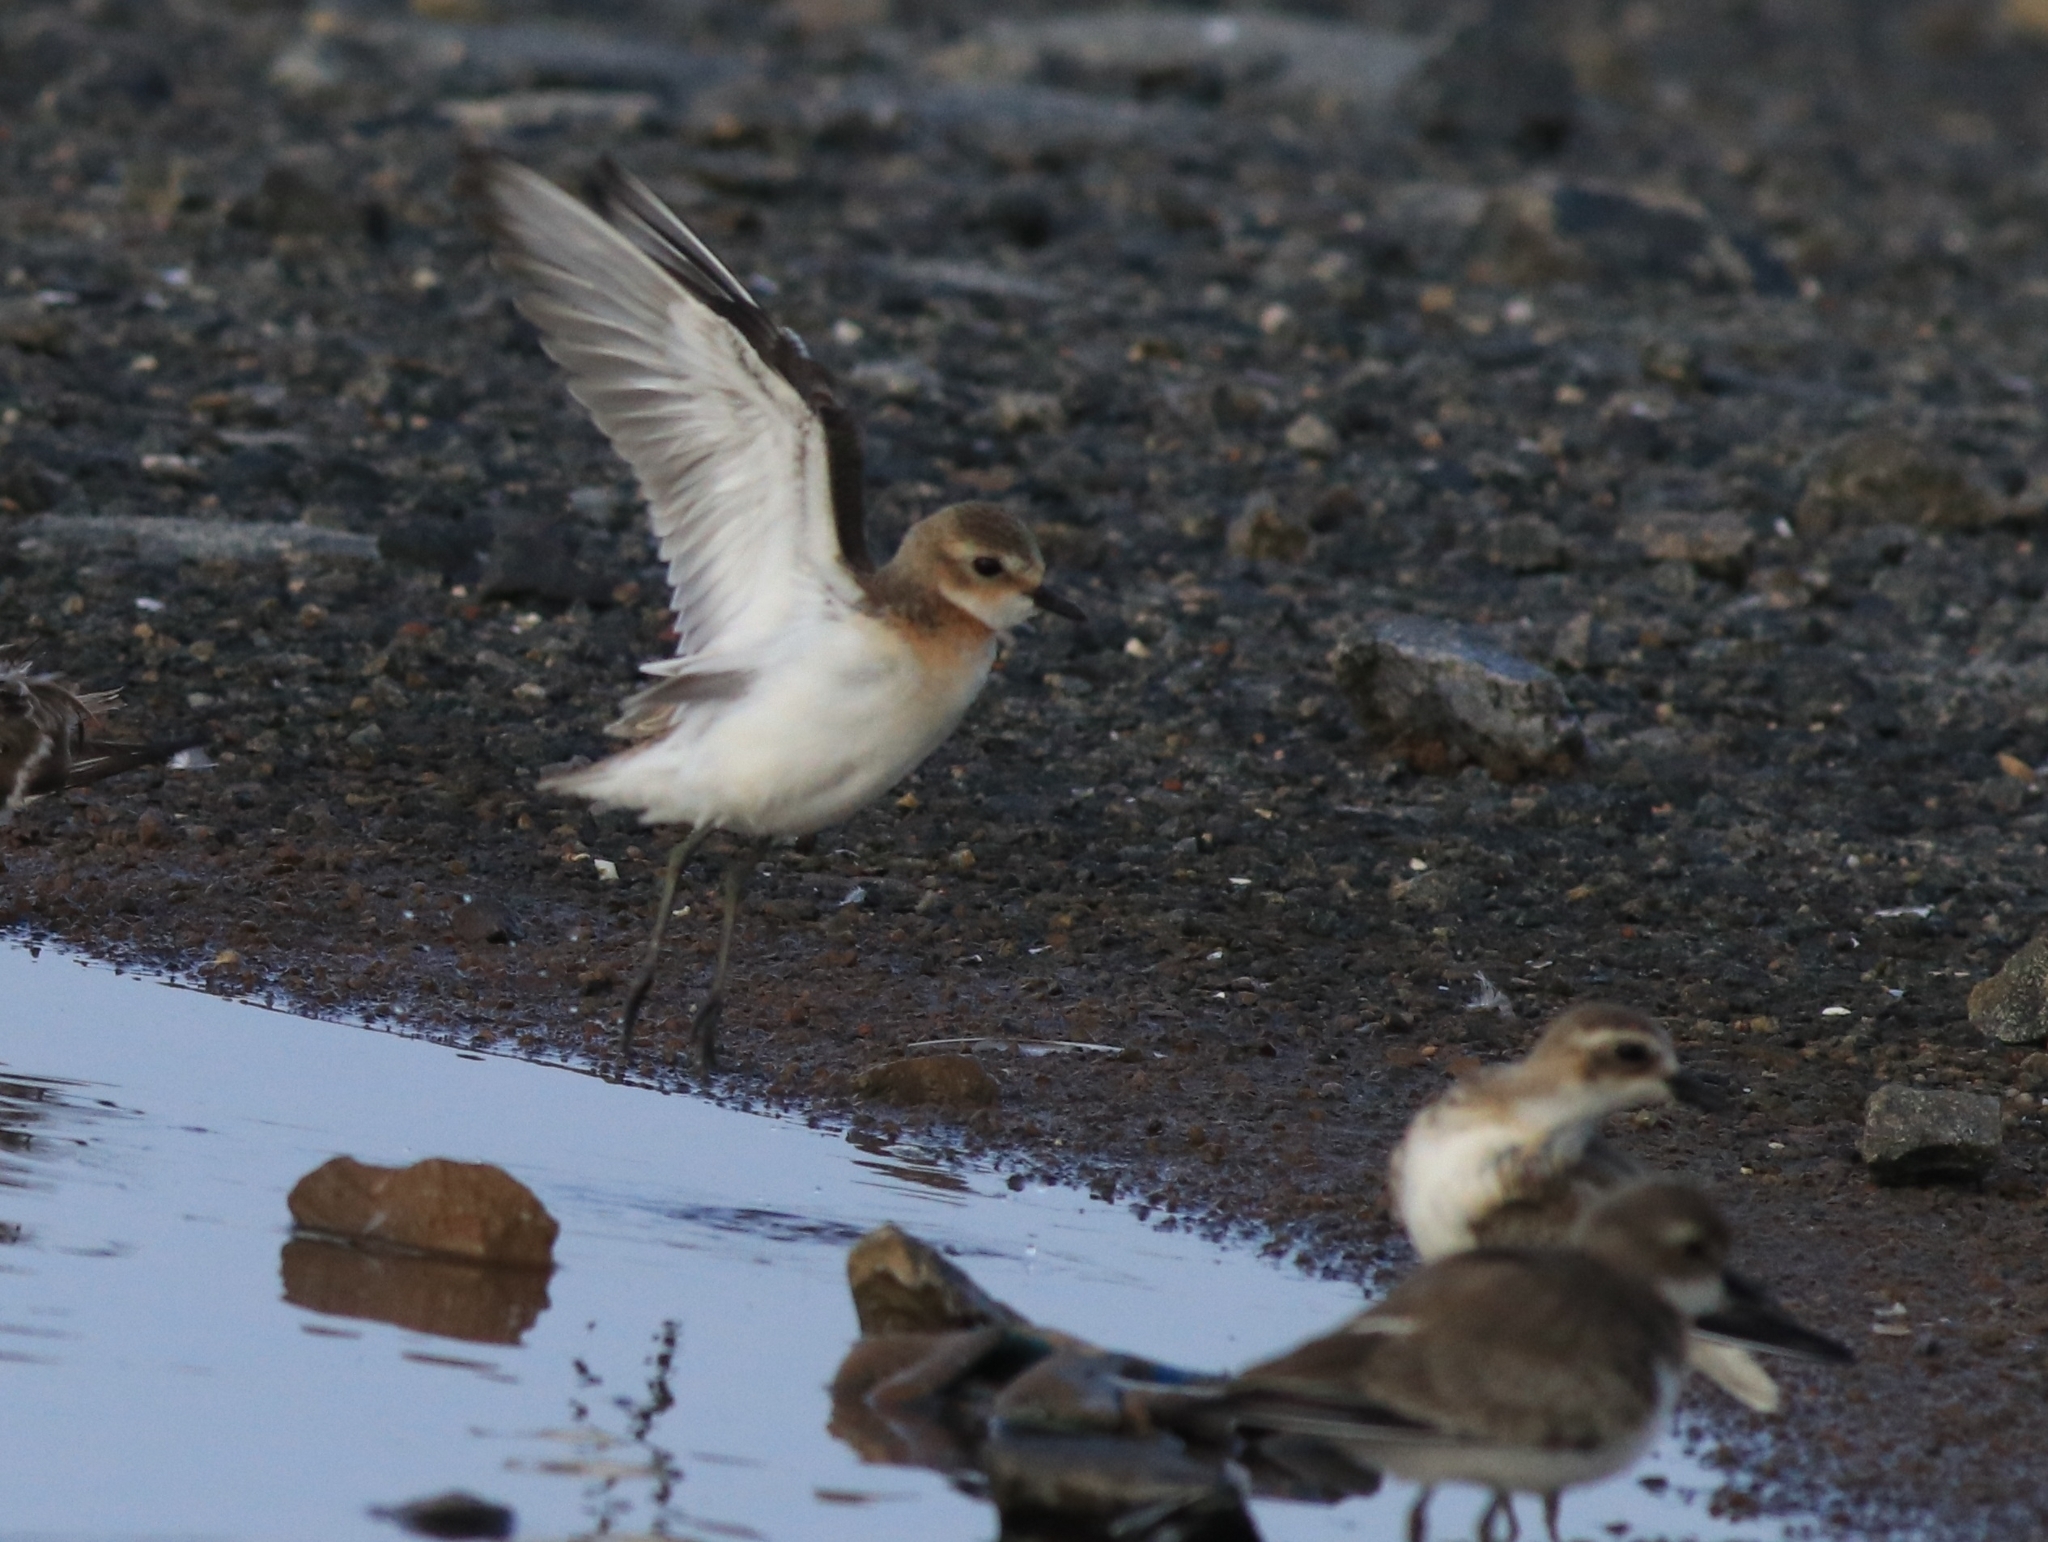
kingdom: Animalia
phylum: Chordata
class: Aves
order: Charadriiformes
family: Charadriidae
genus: Anarhynchus
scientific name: Anarhynchus
